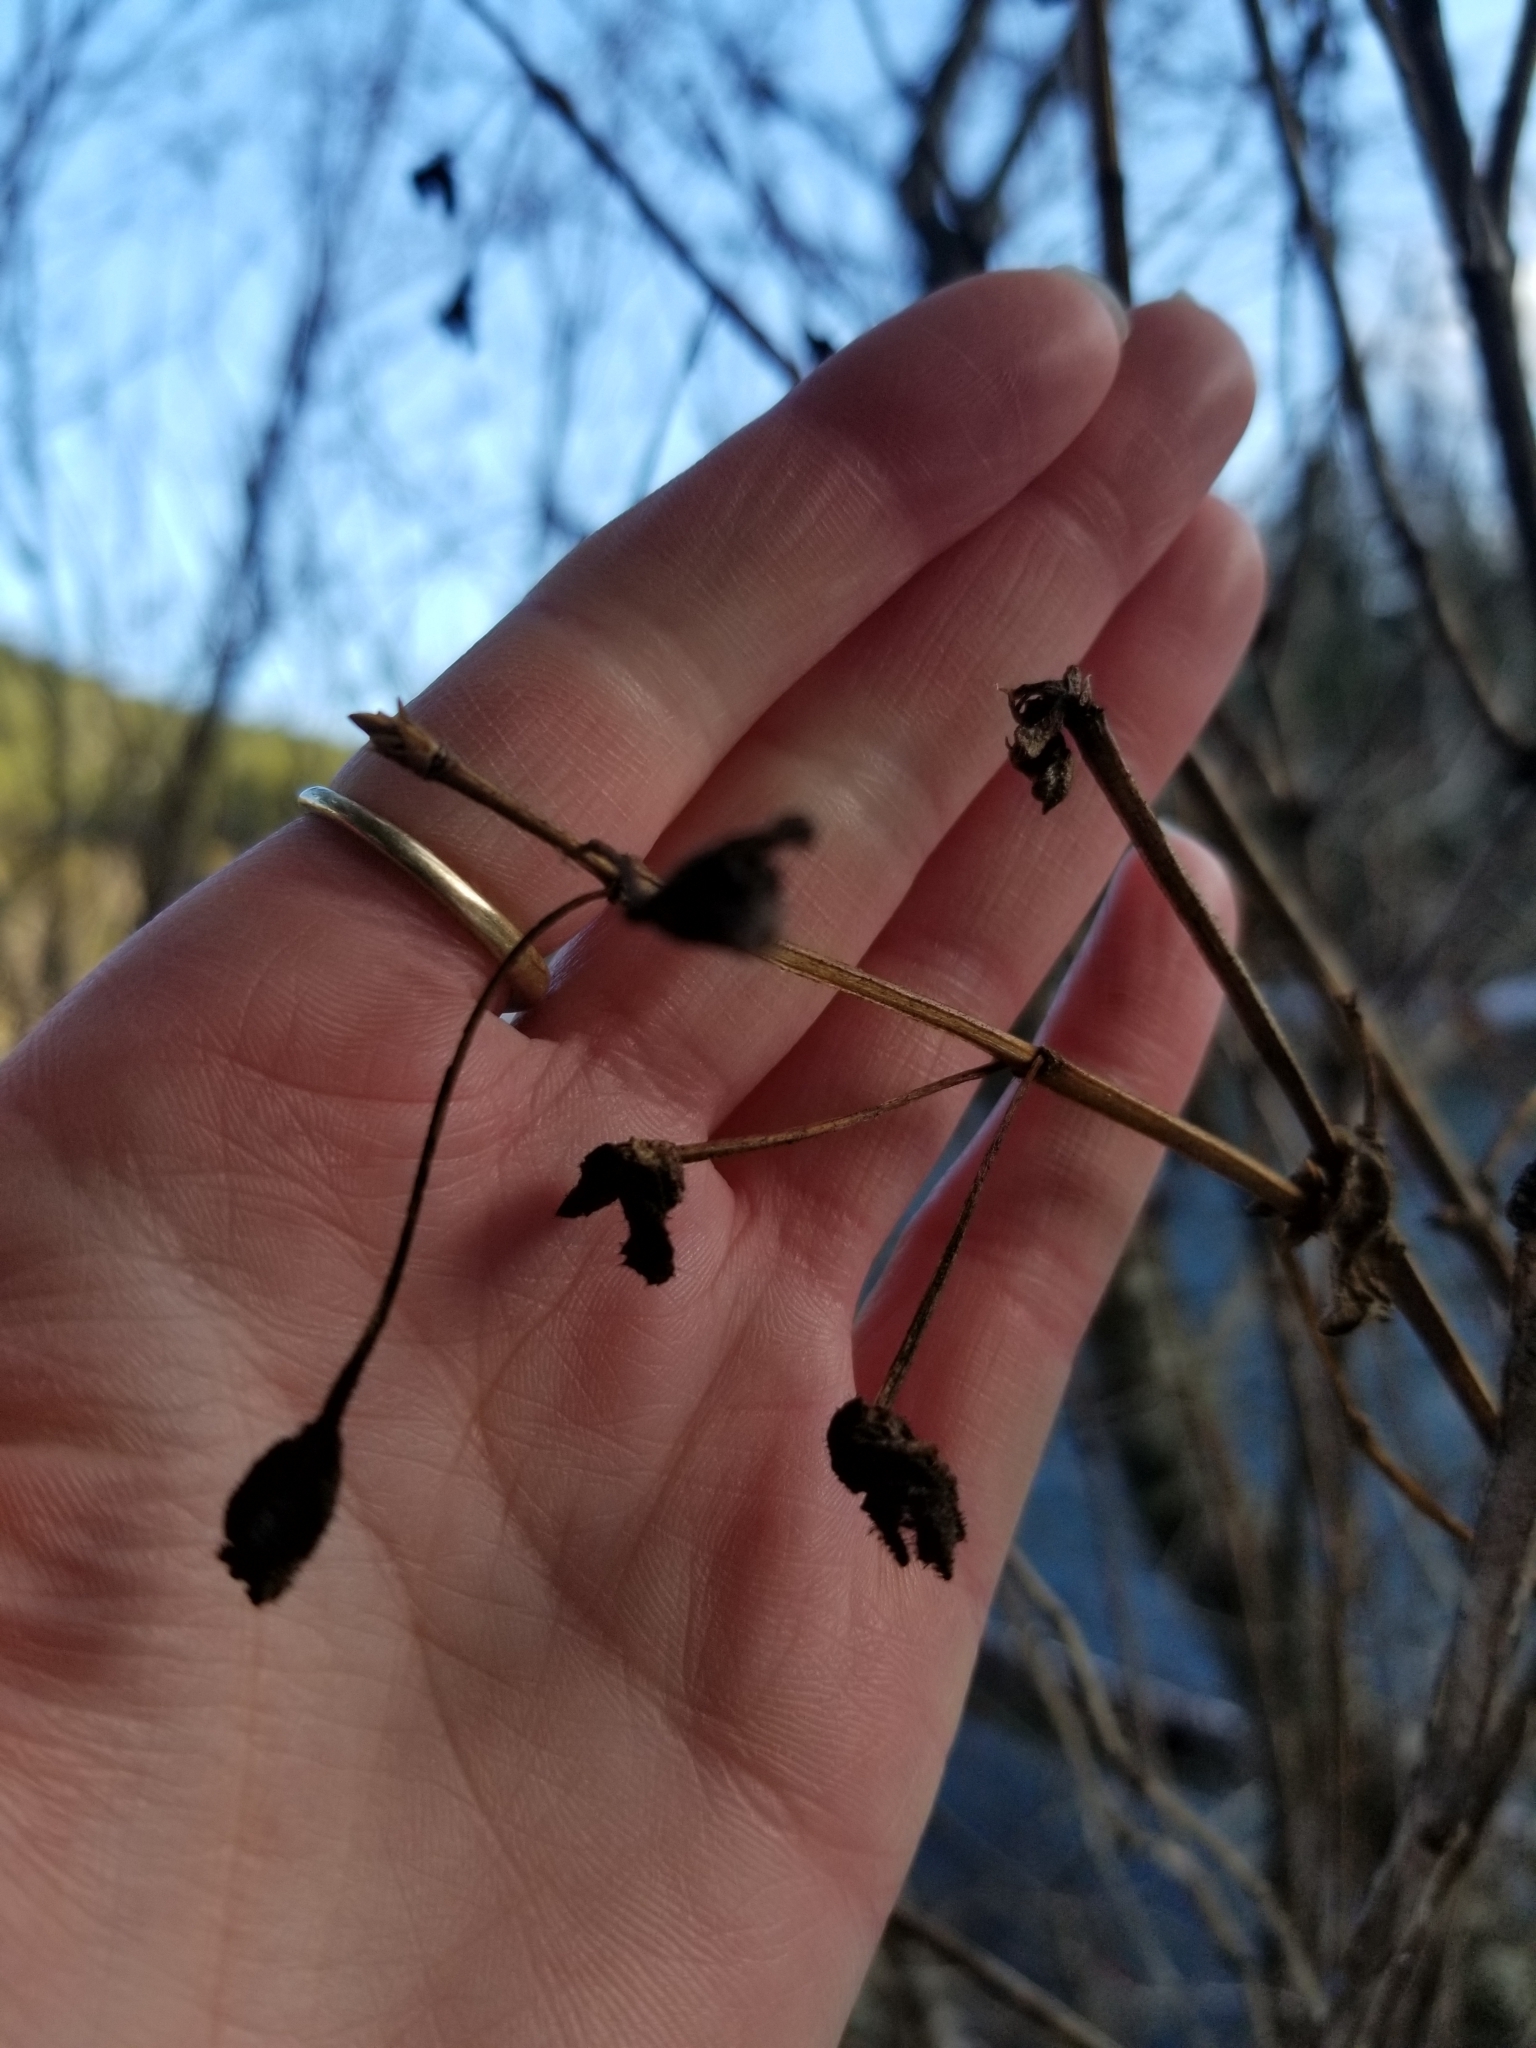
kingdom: Plantae
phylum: Tracheophyta
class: Magnoliopsida
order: Dipsacales
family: Caprifoliaceae
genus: Lonicera
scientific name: Lonicera involucrata
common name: Californian honeysuckle
